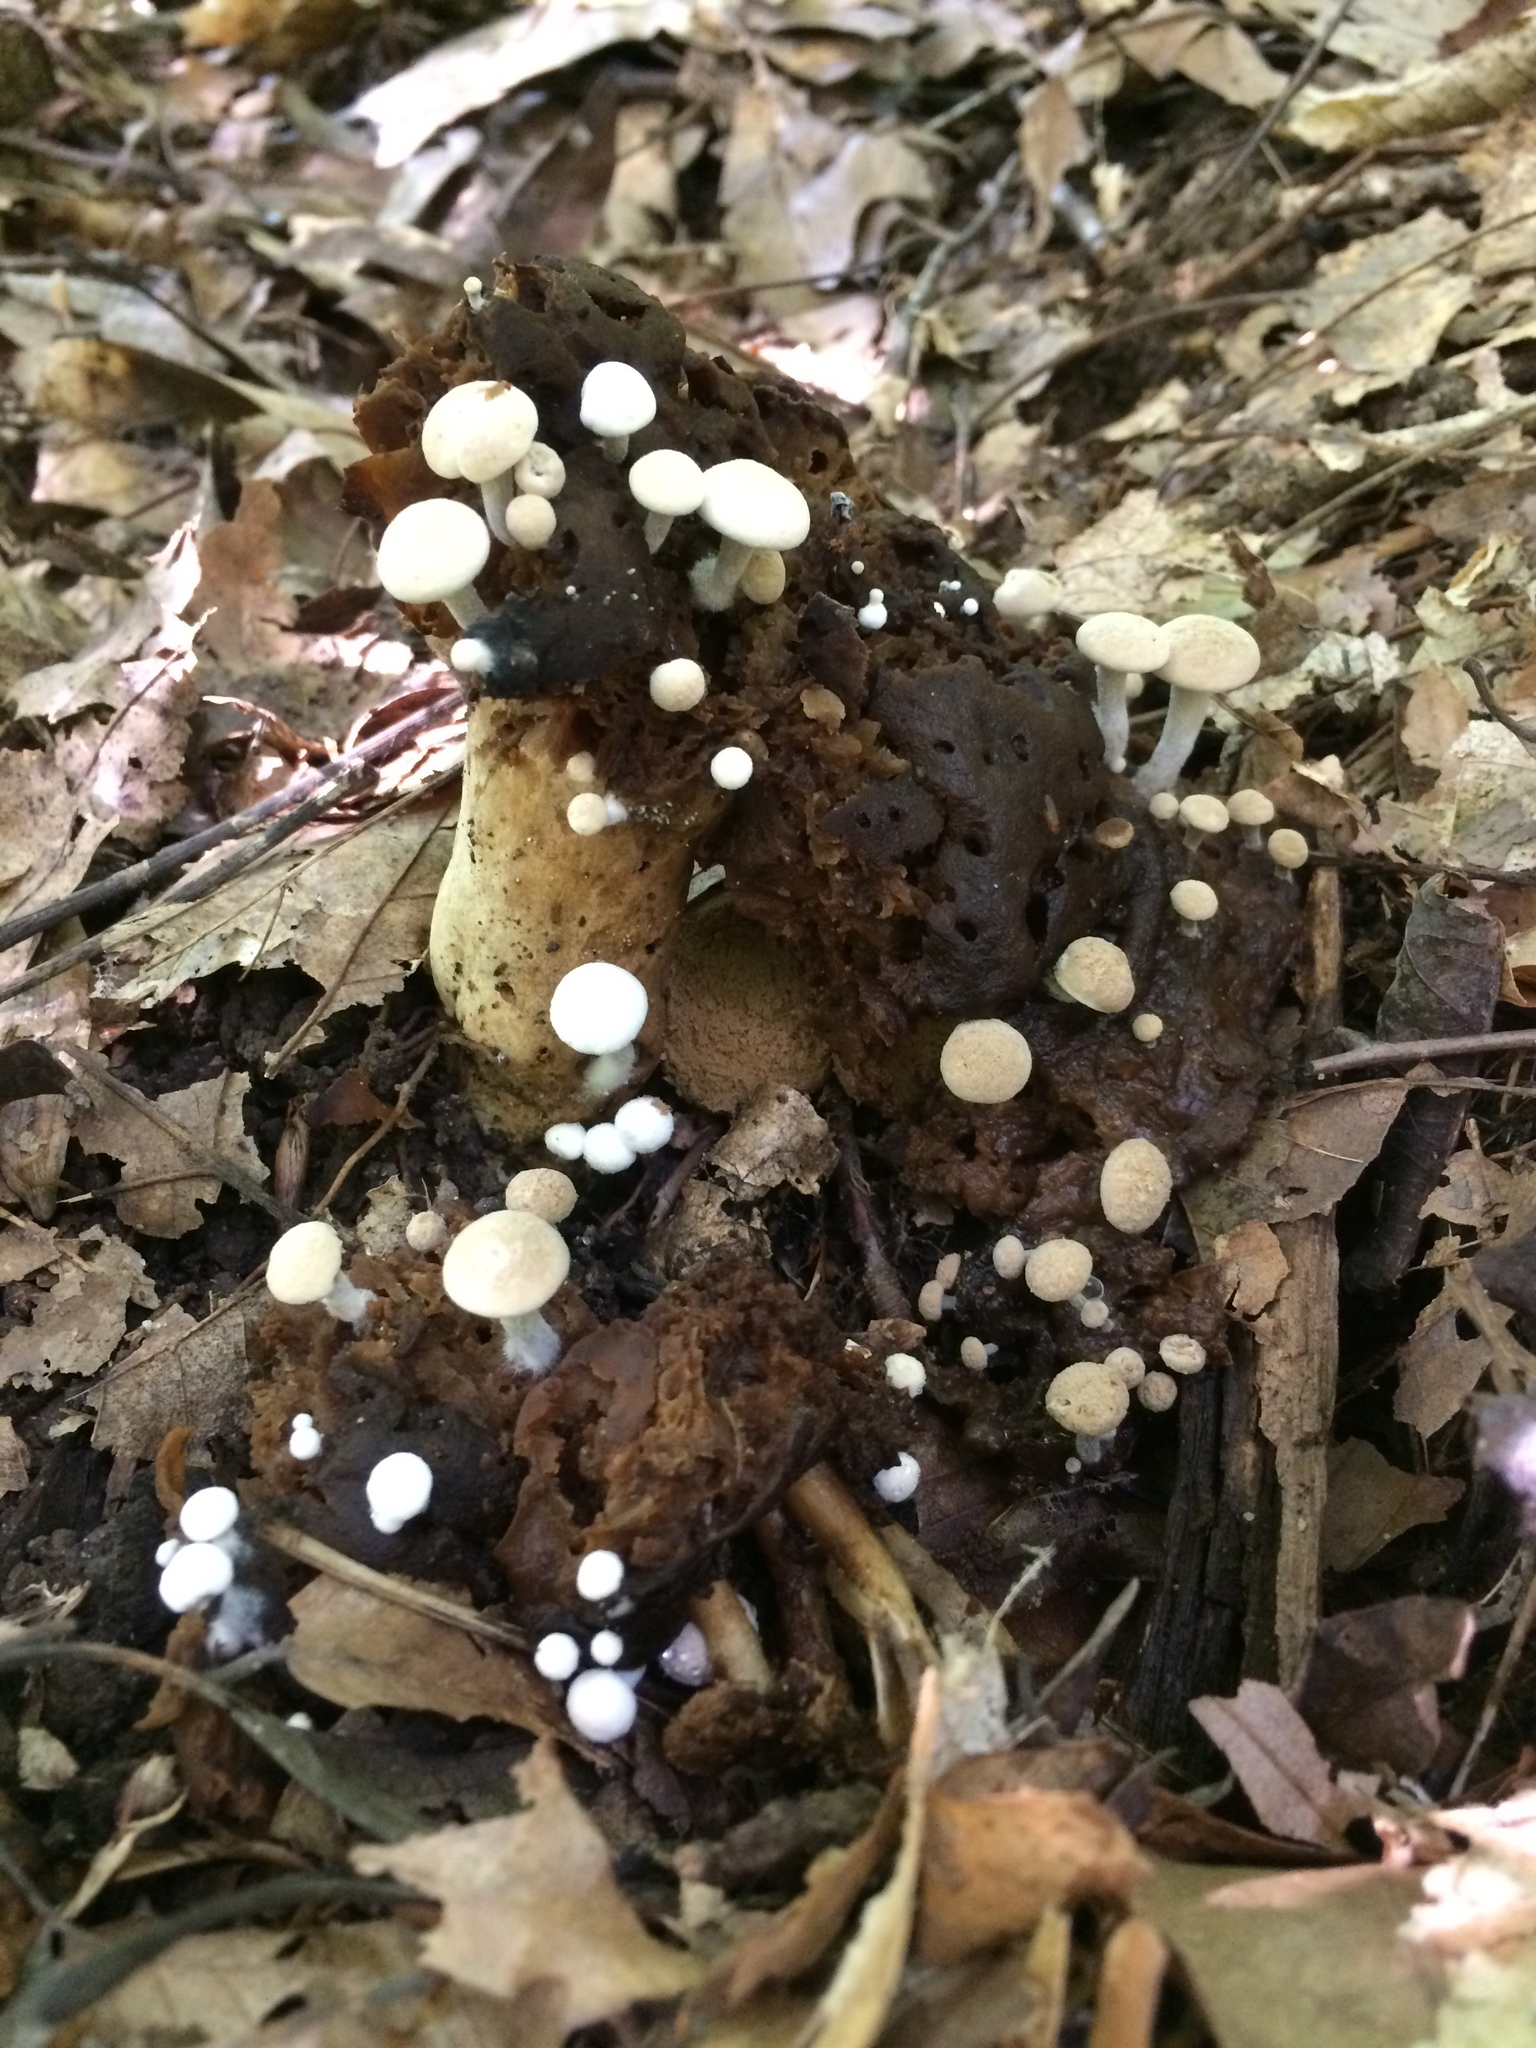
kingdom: Fungi
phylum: Basidiomycota
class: Agaricomycetes
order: Agaricales
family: Lyophyllaceae
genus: Asterophora
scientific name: Asterophora lycoperdoides
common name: Pick-a-back toadstool
